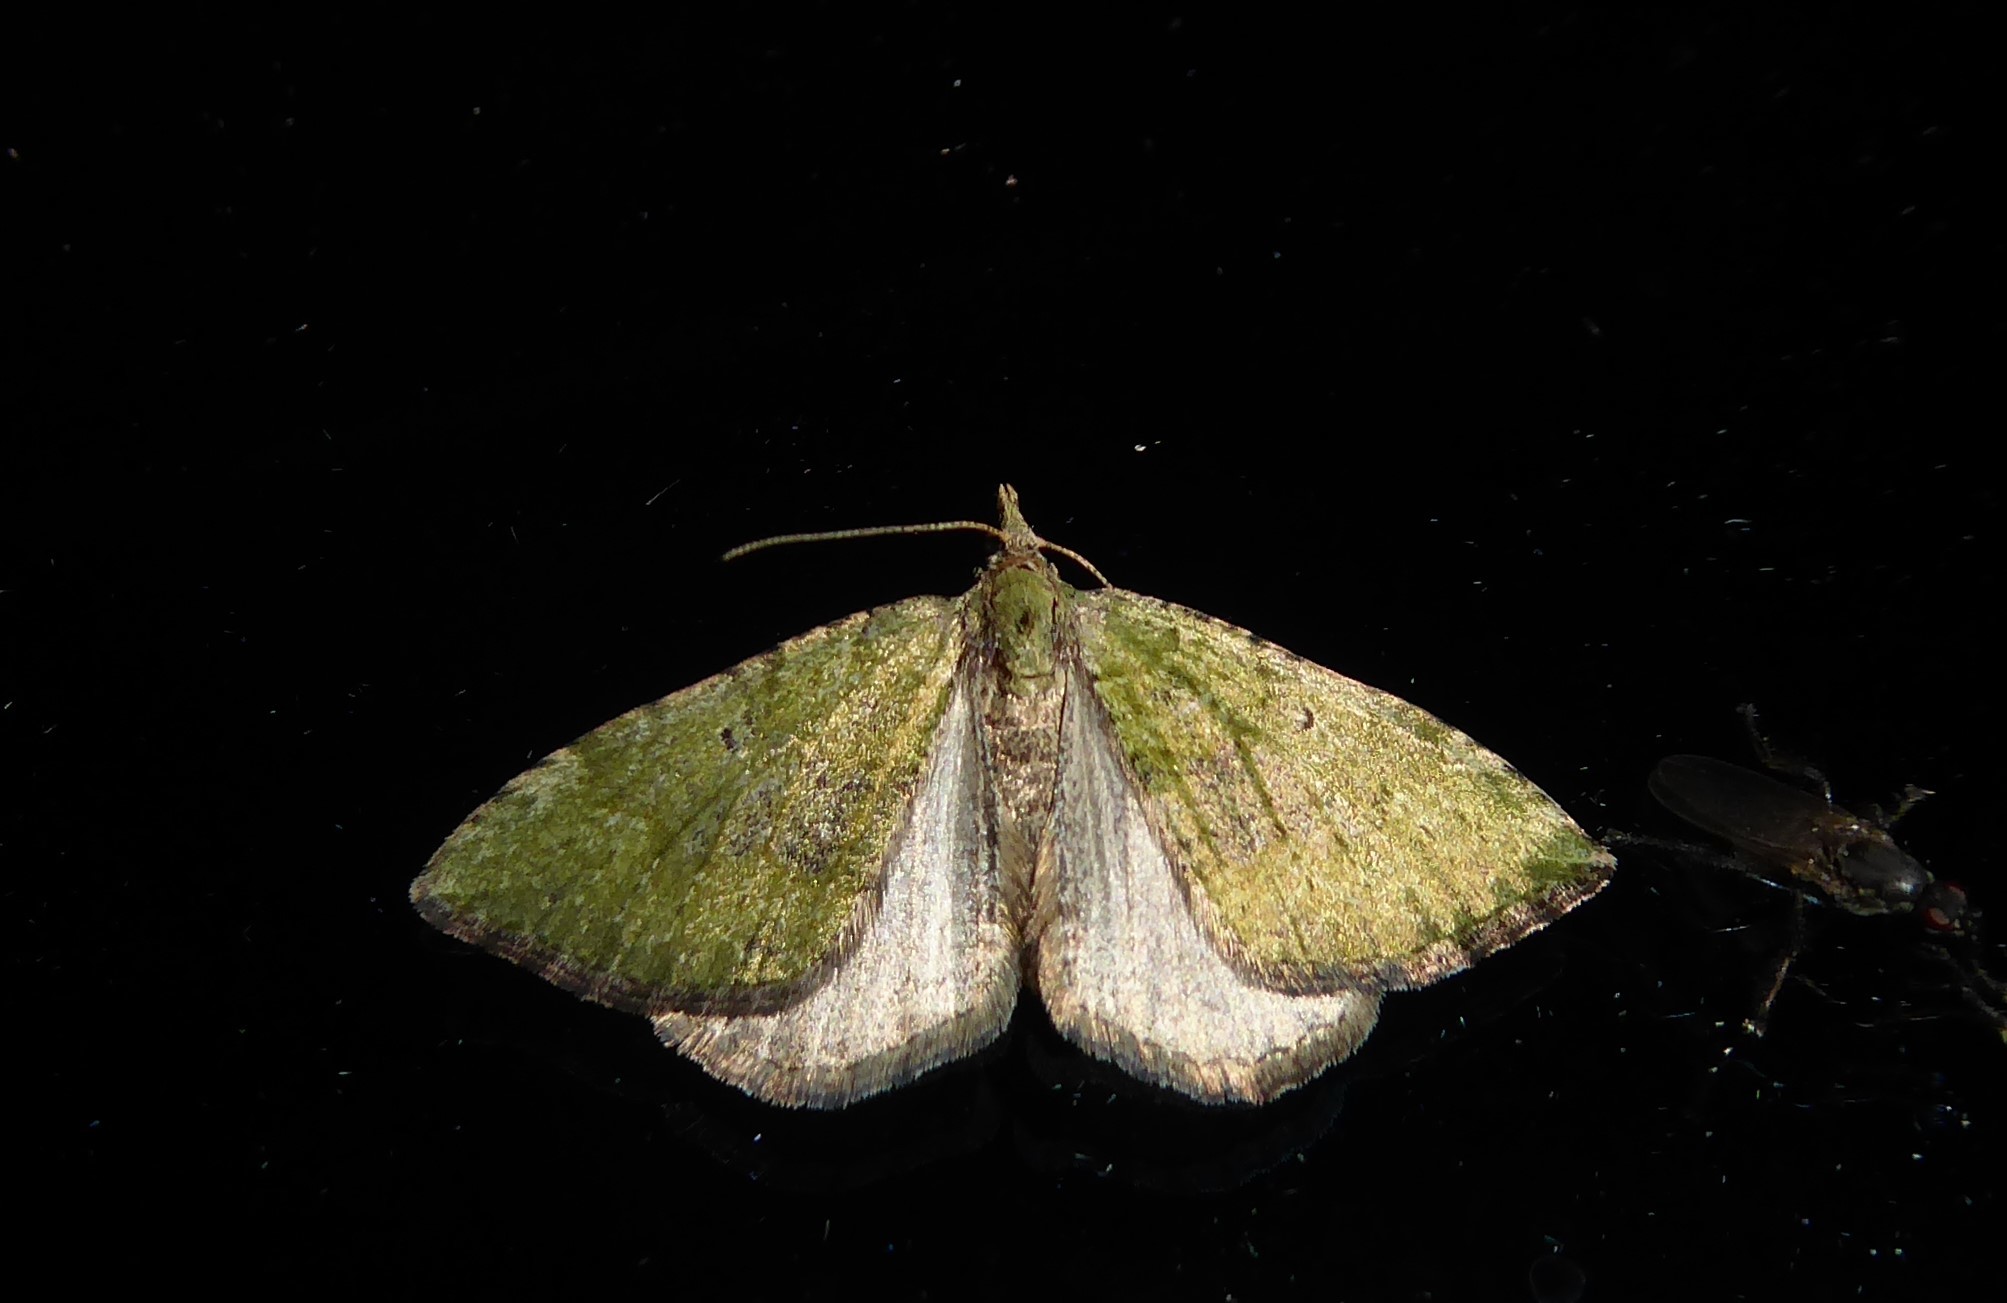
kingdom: Animalia
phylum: Arthropoda
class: Insecta
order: Lepidoptera
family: Geometridae
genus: Epyaxa
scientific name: Epyaxa rosearia
